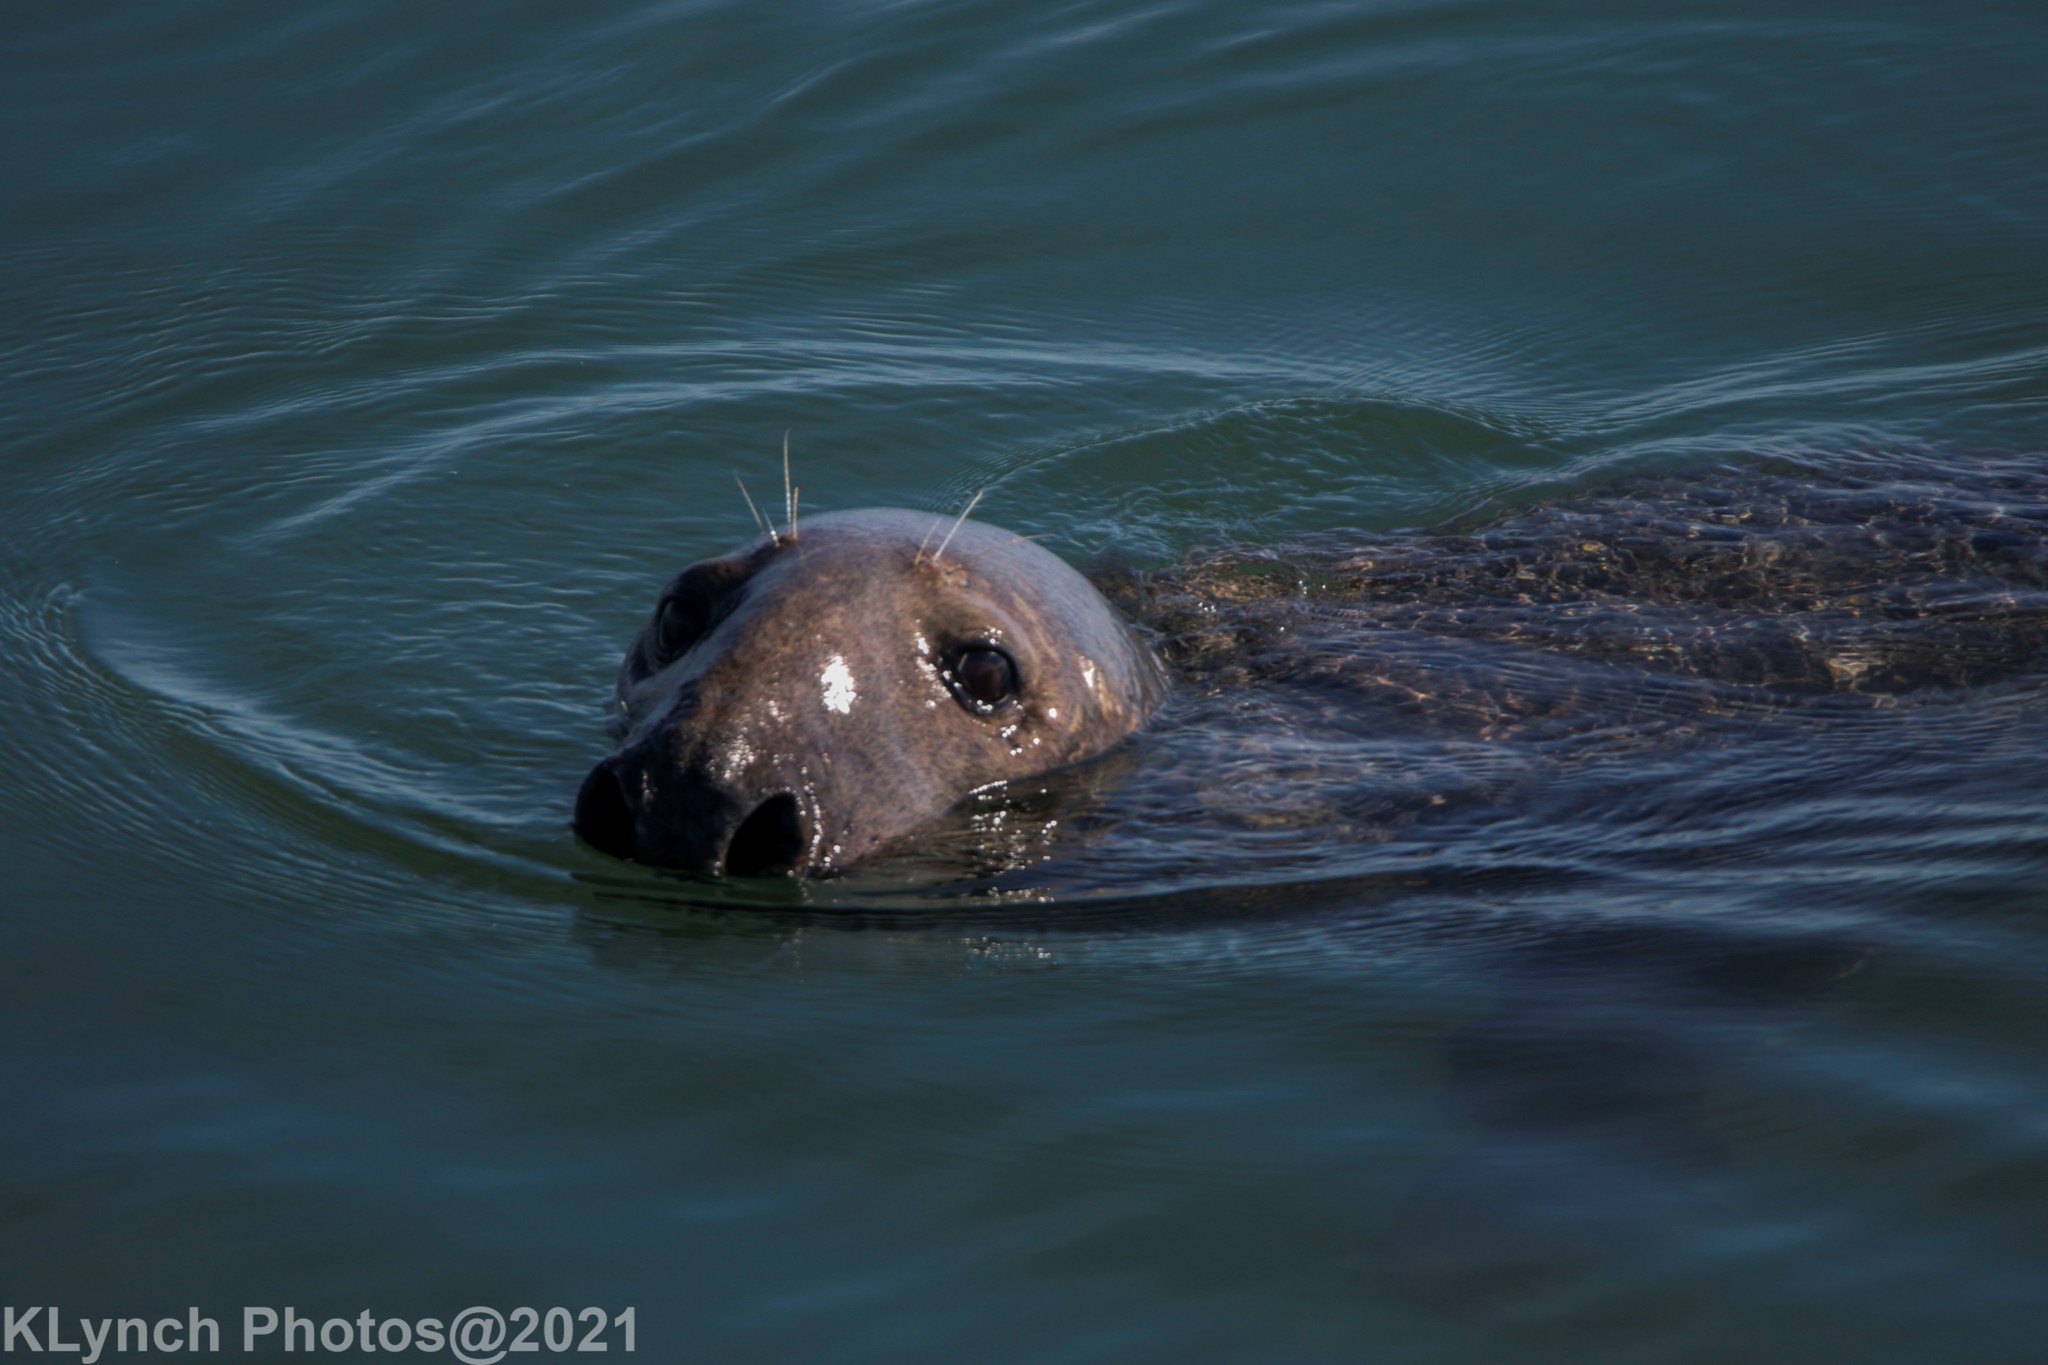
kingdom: Animalia
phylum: Chordata
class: Mammalia
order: Carnivora
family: Phocidae
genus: Halichoerus
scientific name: Halichoerus grypus
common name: Grey seal
